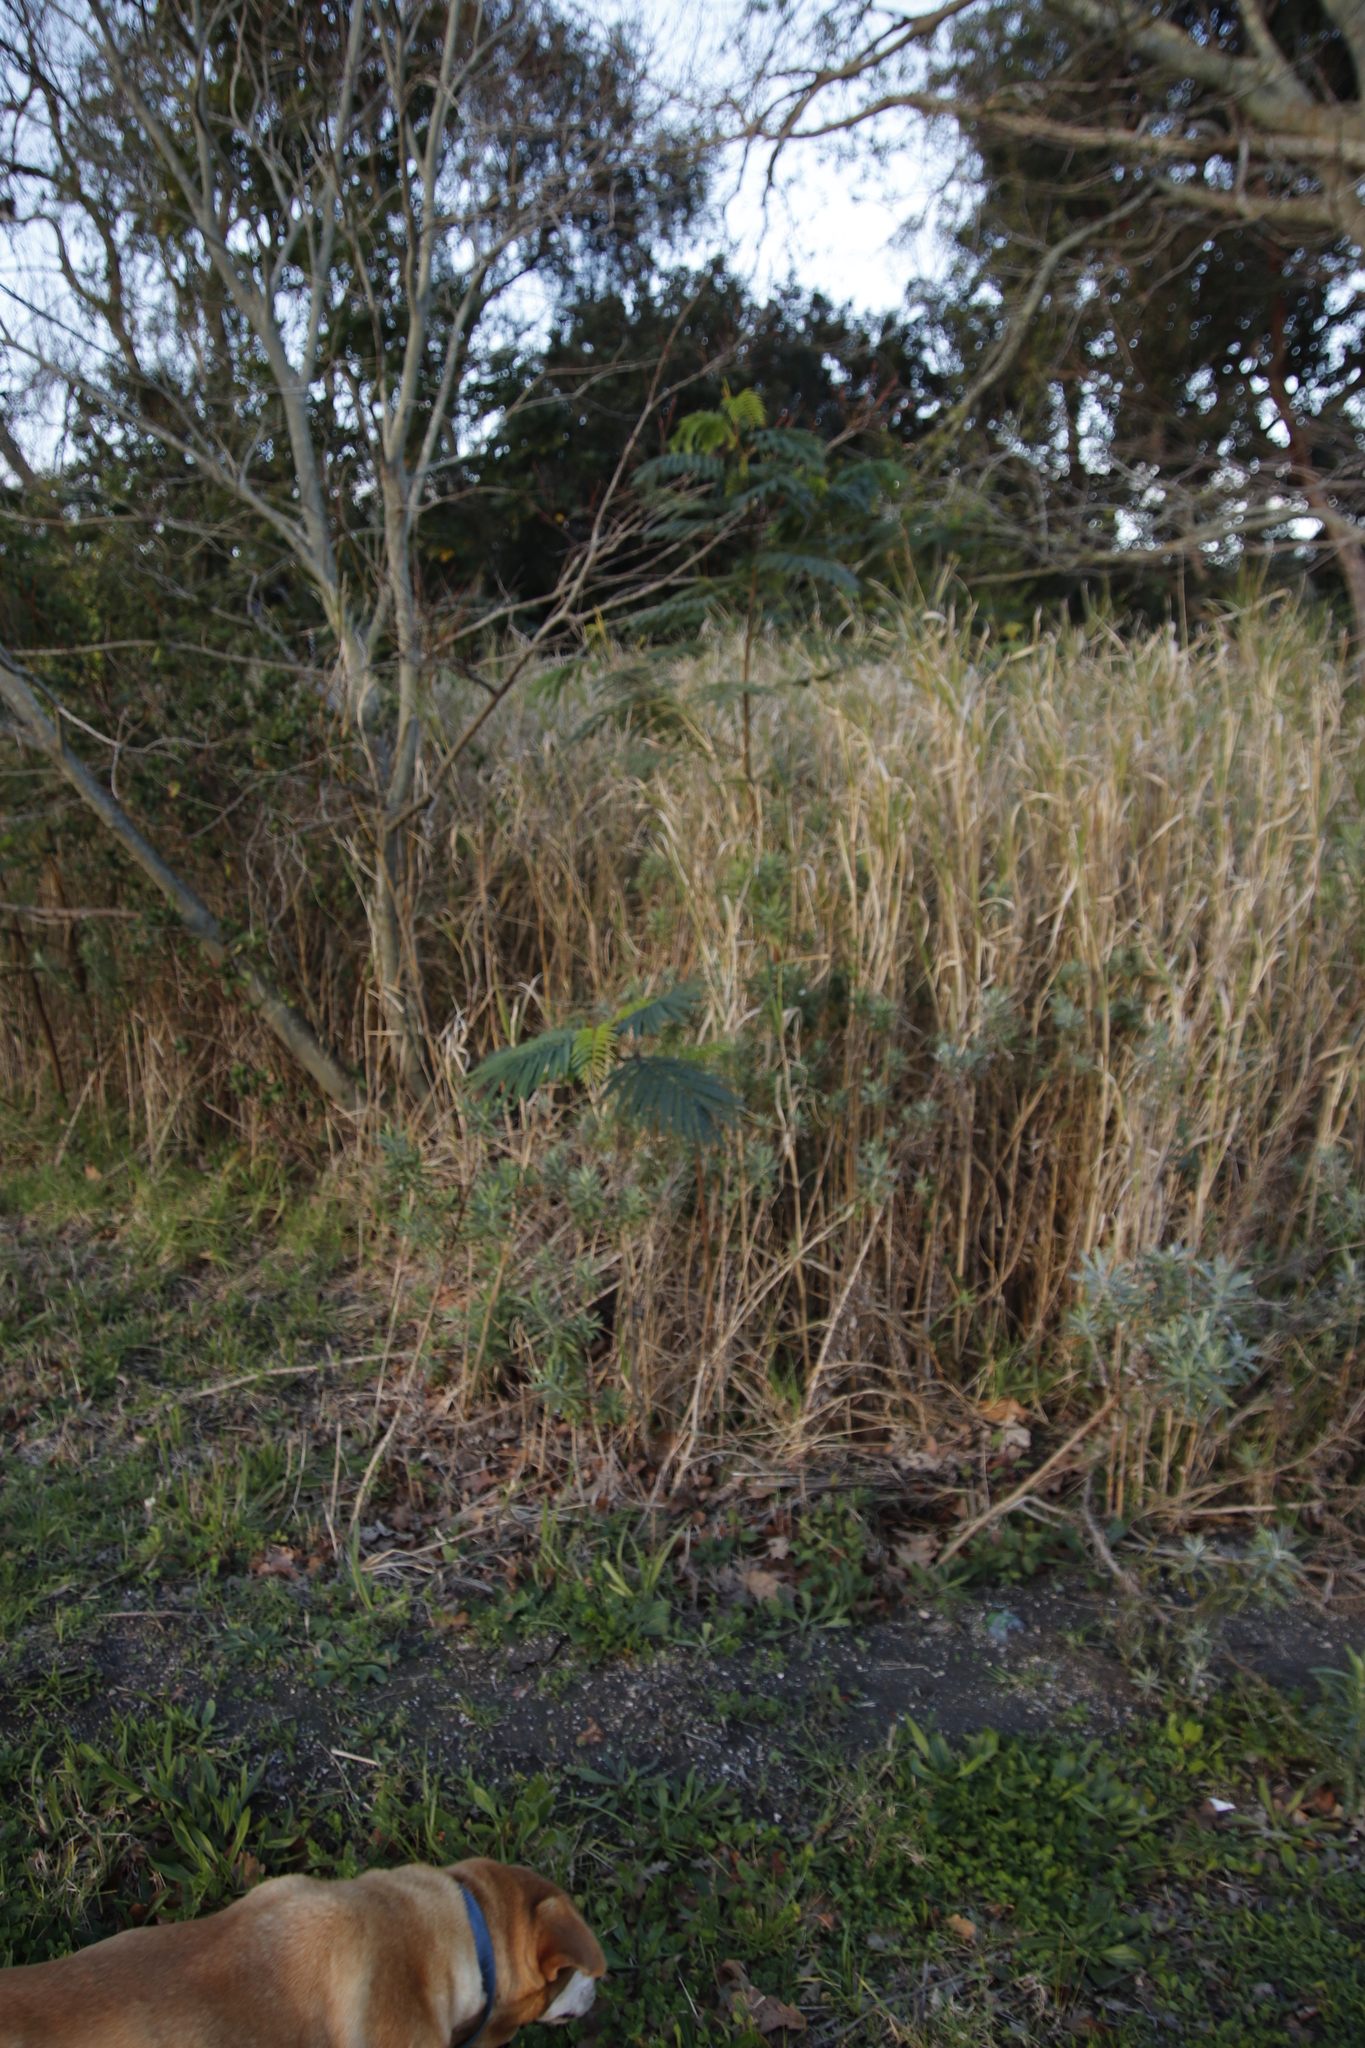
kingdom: Plantae
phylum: Tracheophyta
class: Magnoliopsida
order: Fabales
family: Fabaceae
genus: Paraserianthes
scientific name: Paraserianthes lophantha
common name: Plume albizia
